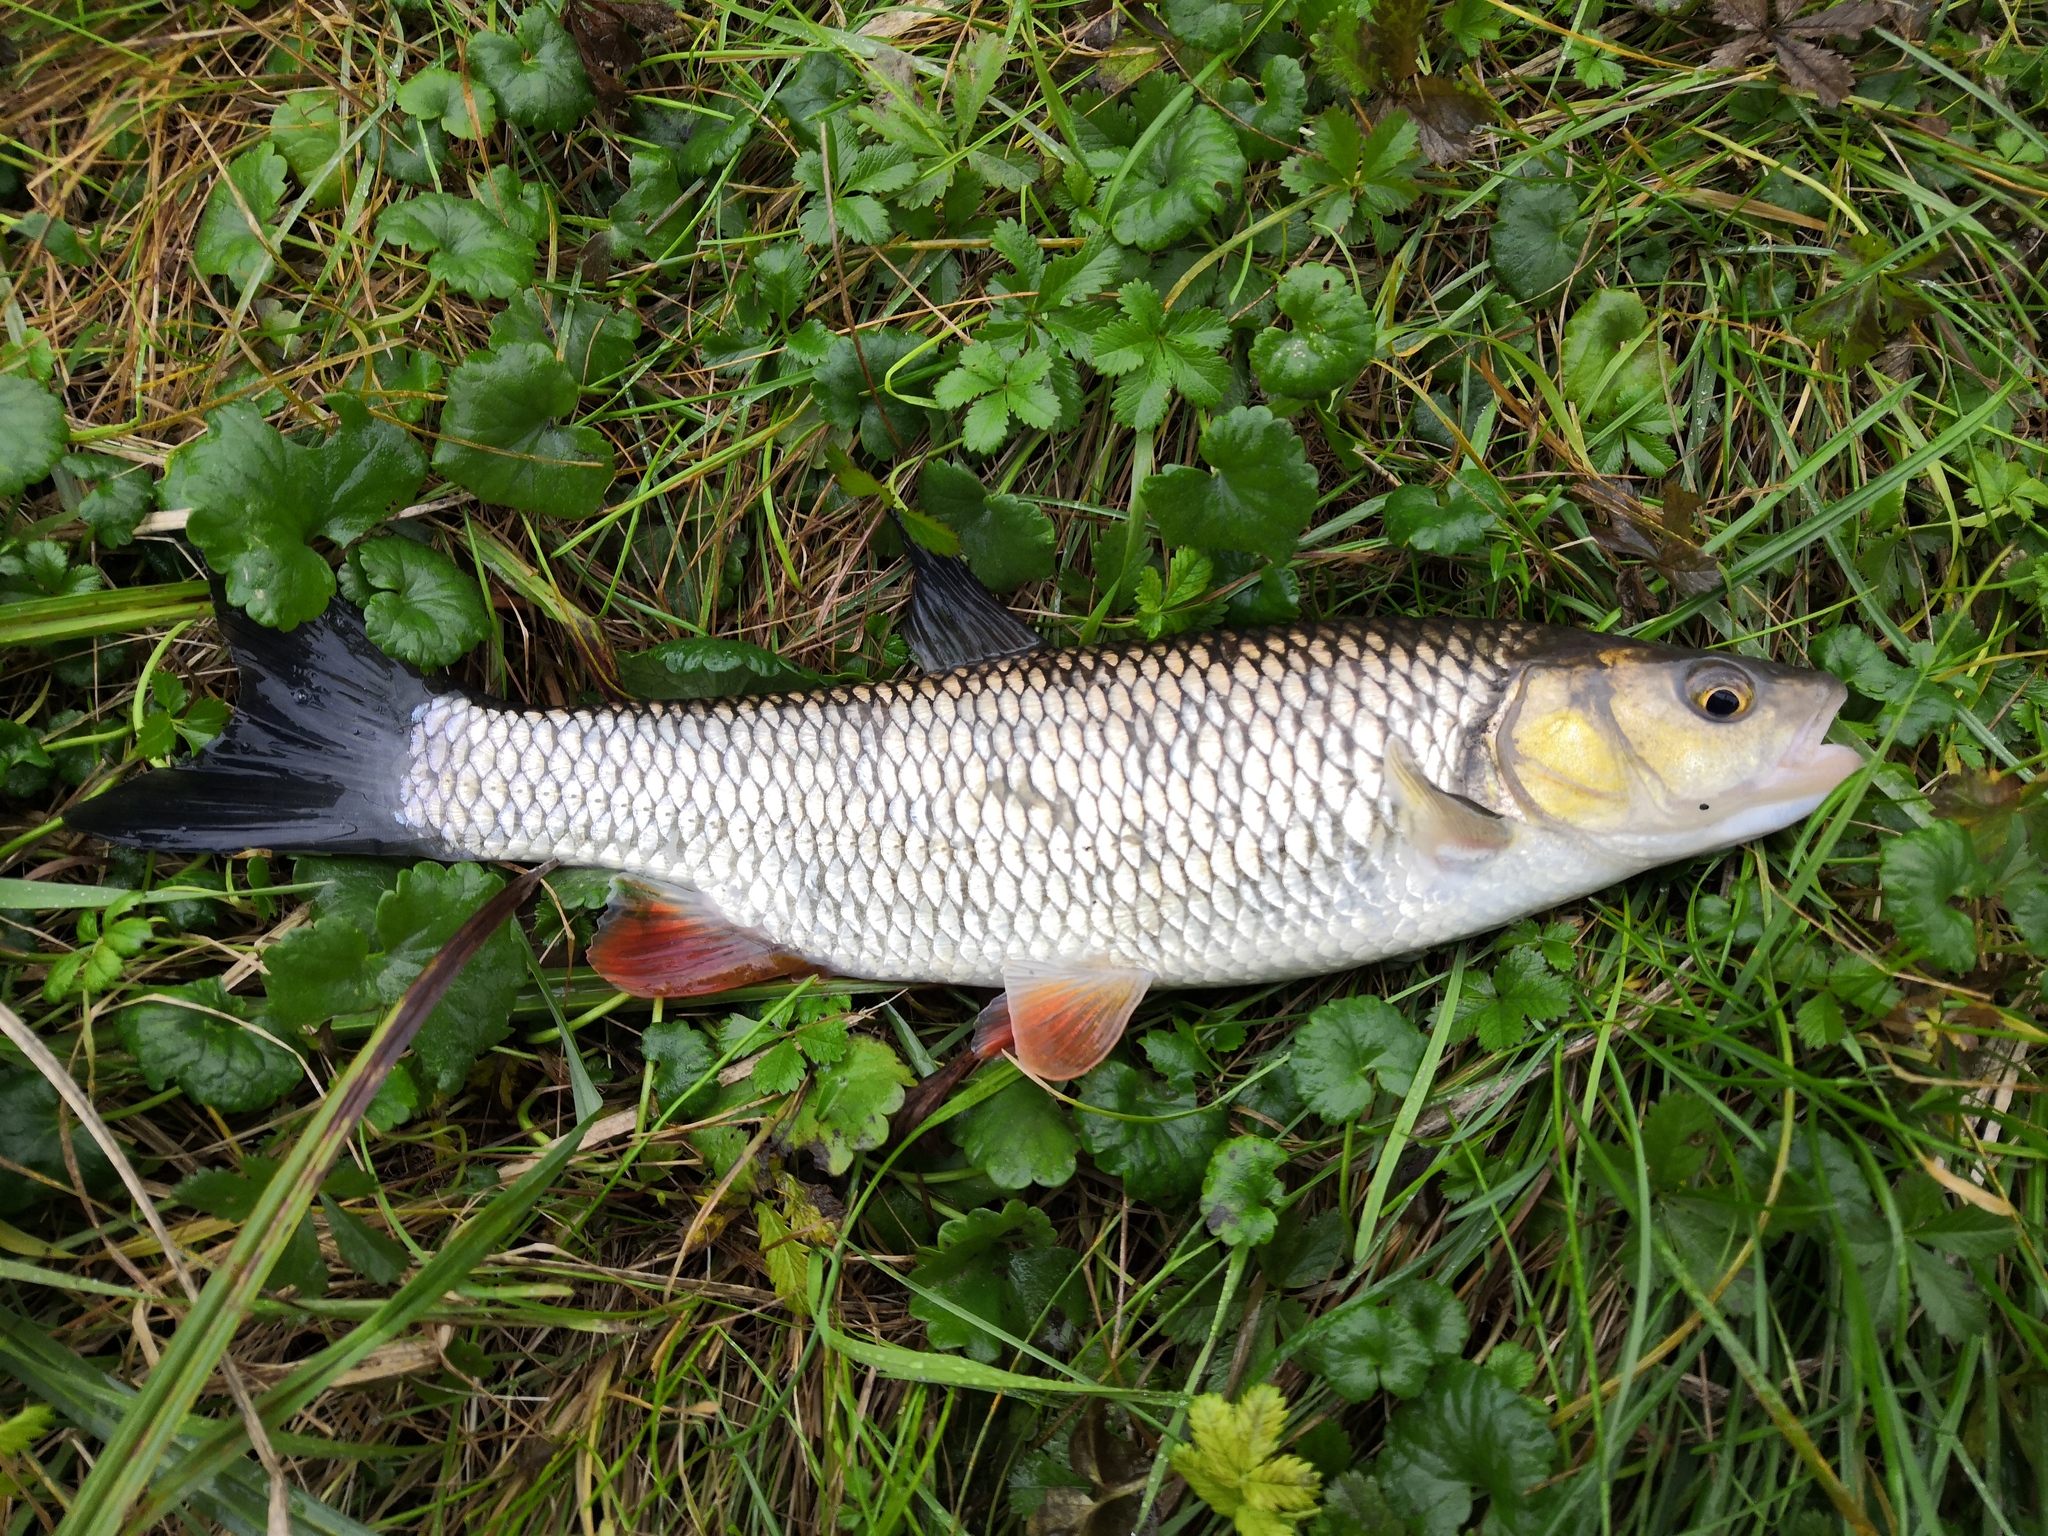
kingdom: Animalia
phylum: Chordata
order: Cypriniformes
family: Cyprinidae
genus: Squalius
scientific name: Squalius cephalus
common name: Chub
